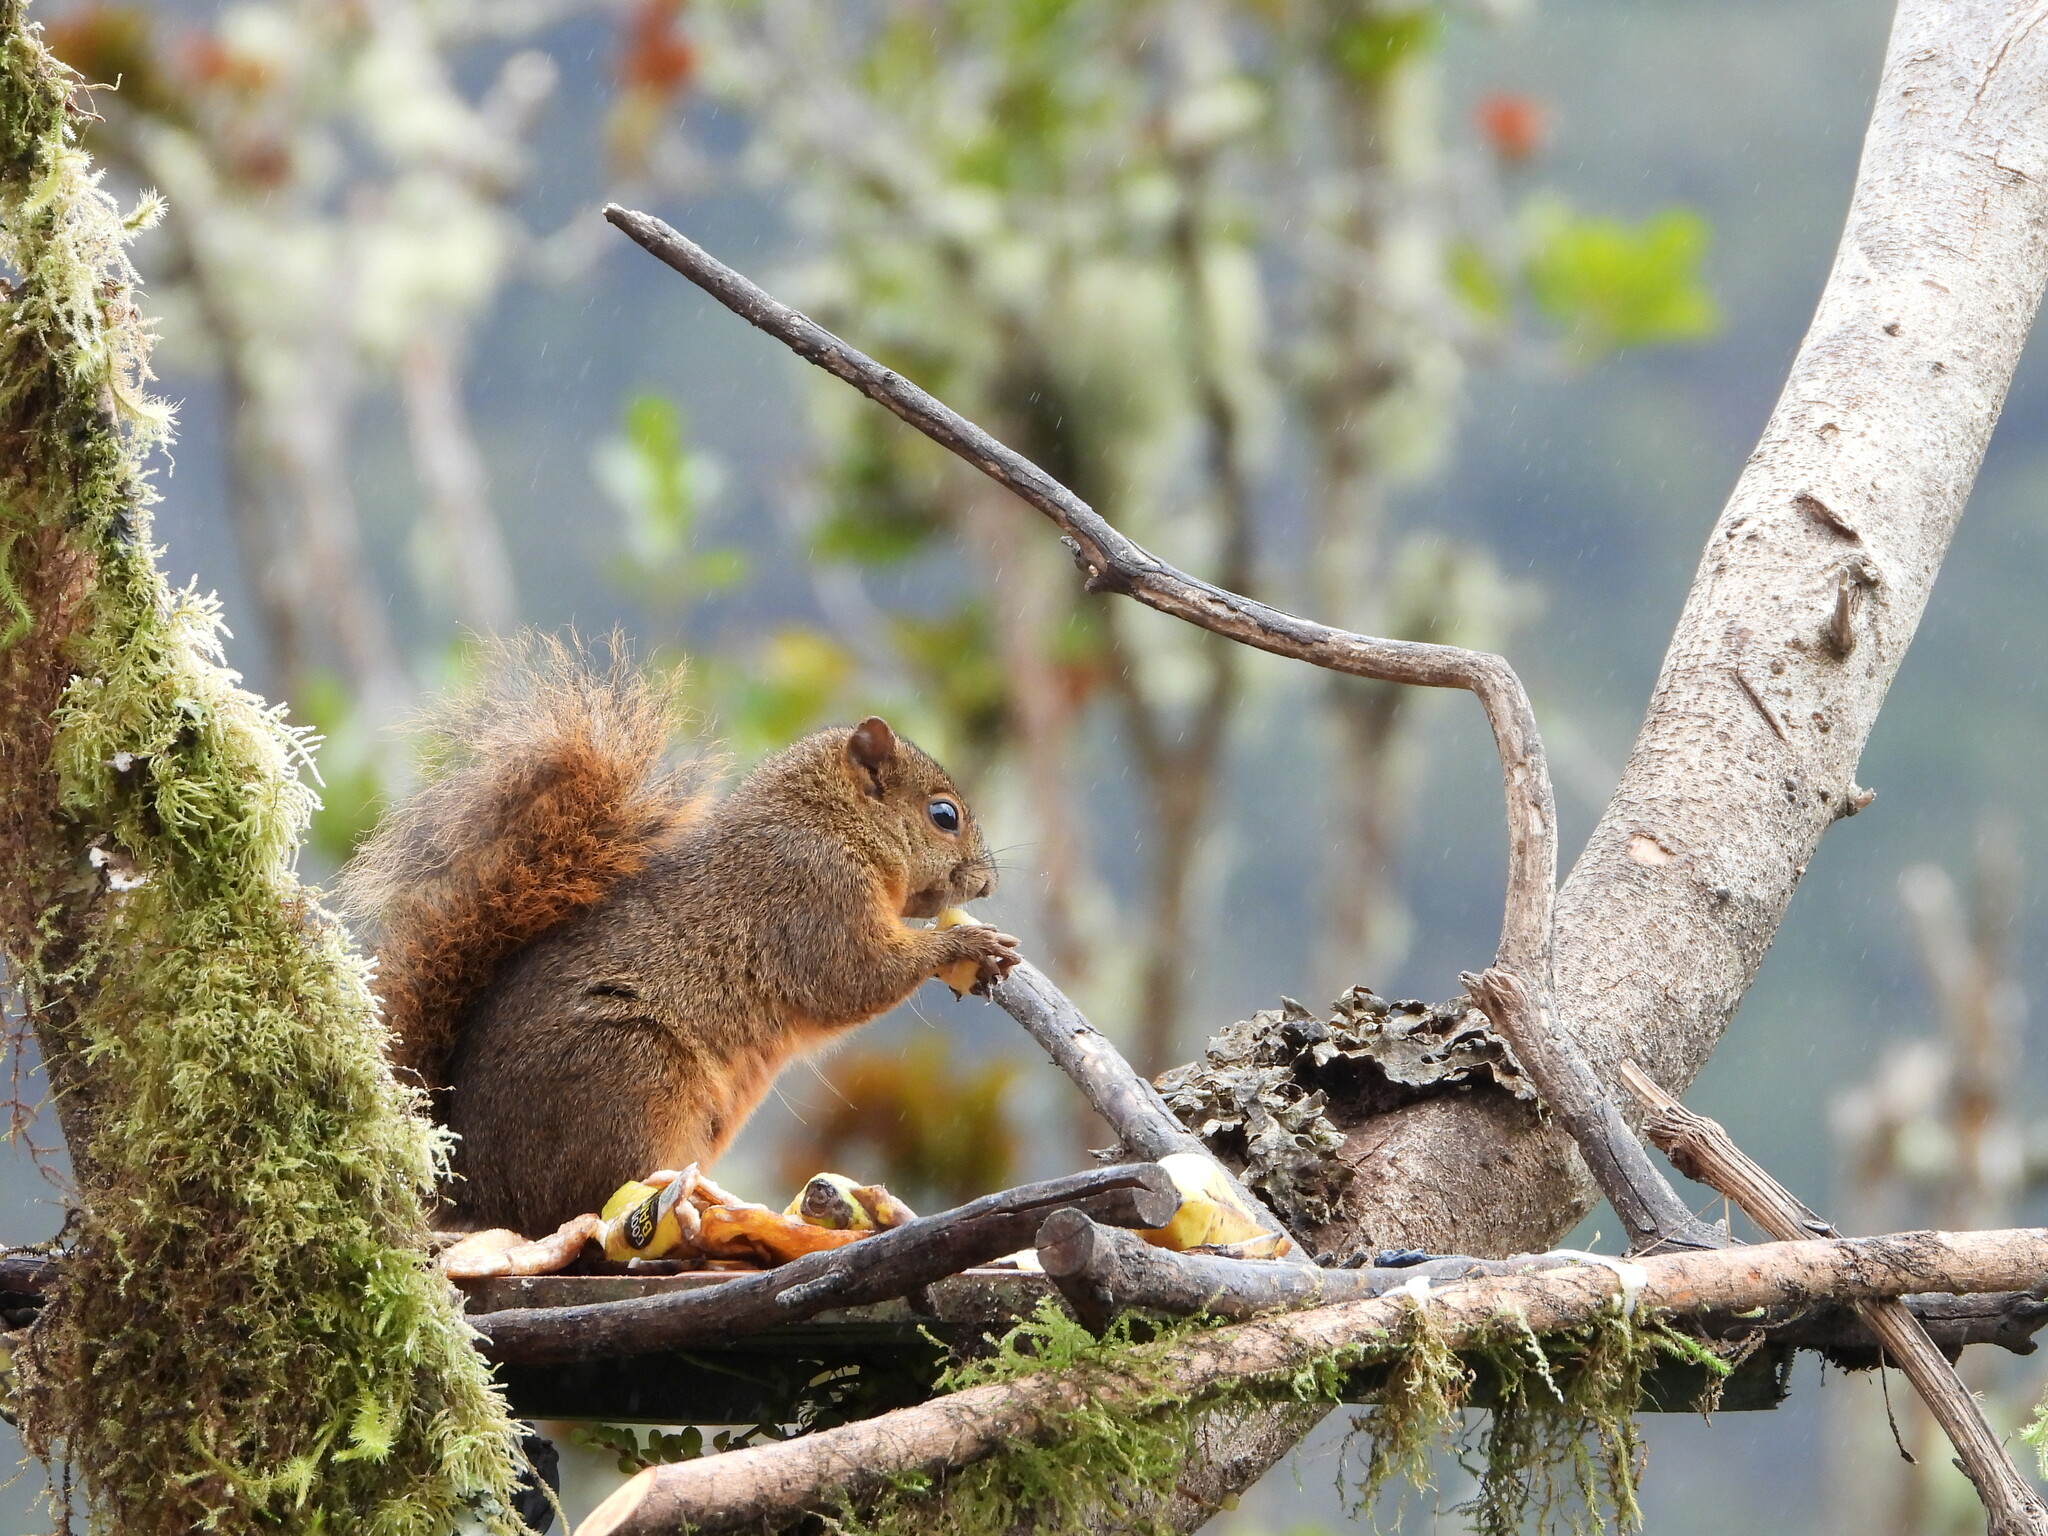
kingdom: Animalia
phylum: Chordata
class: Mammalia
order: Rodentia
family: Sciuridae
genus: Sciurus
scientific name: Sciurus granatensis
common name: Red-tailed squirrel
